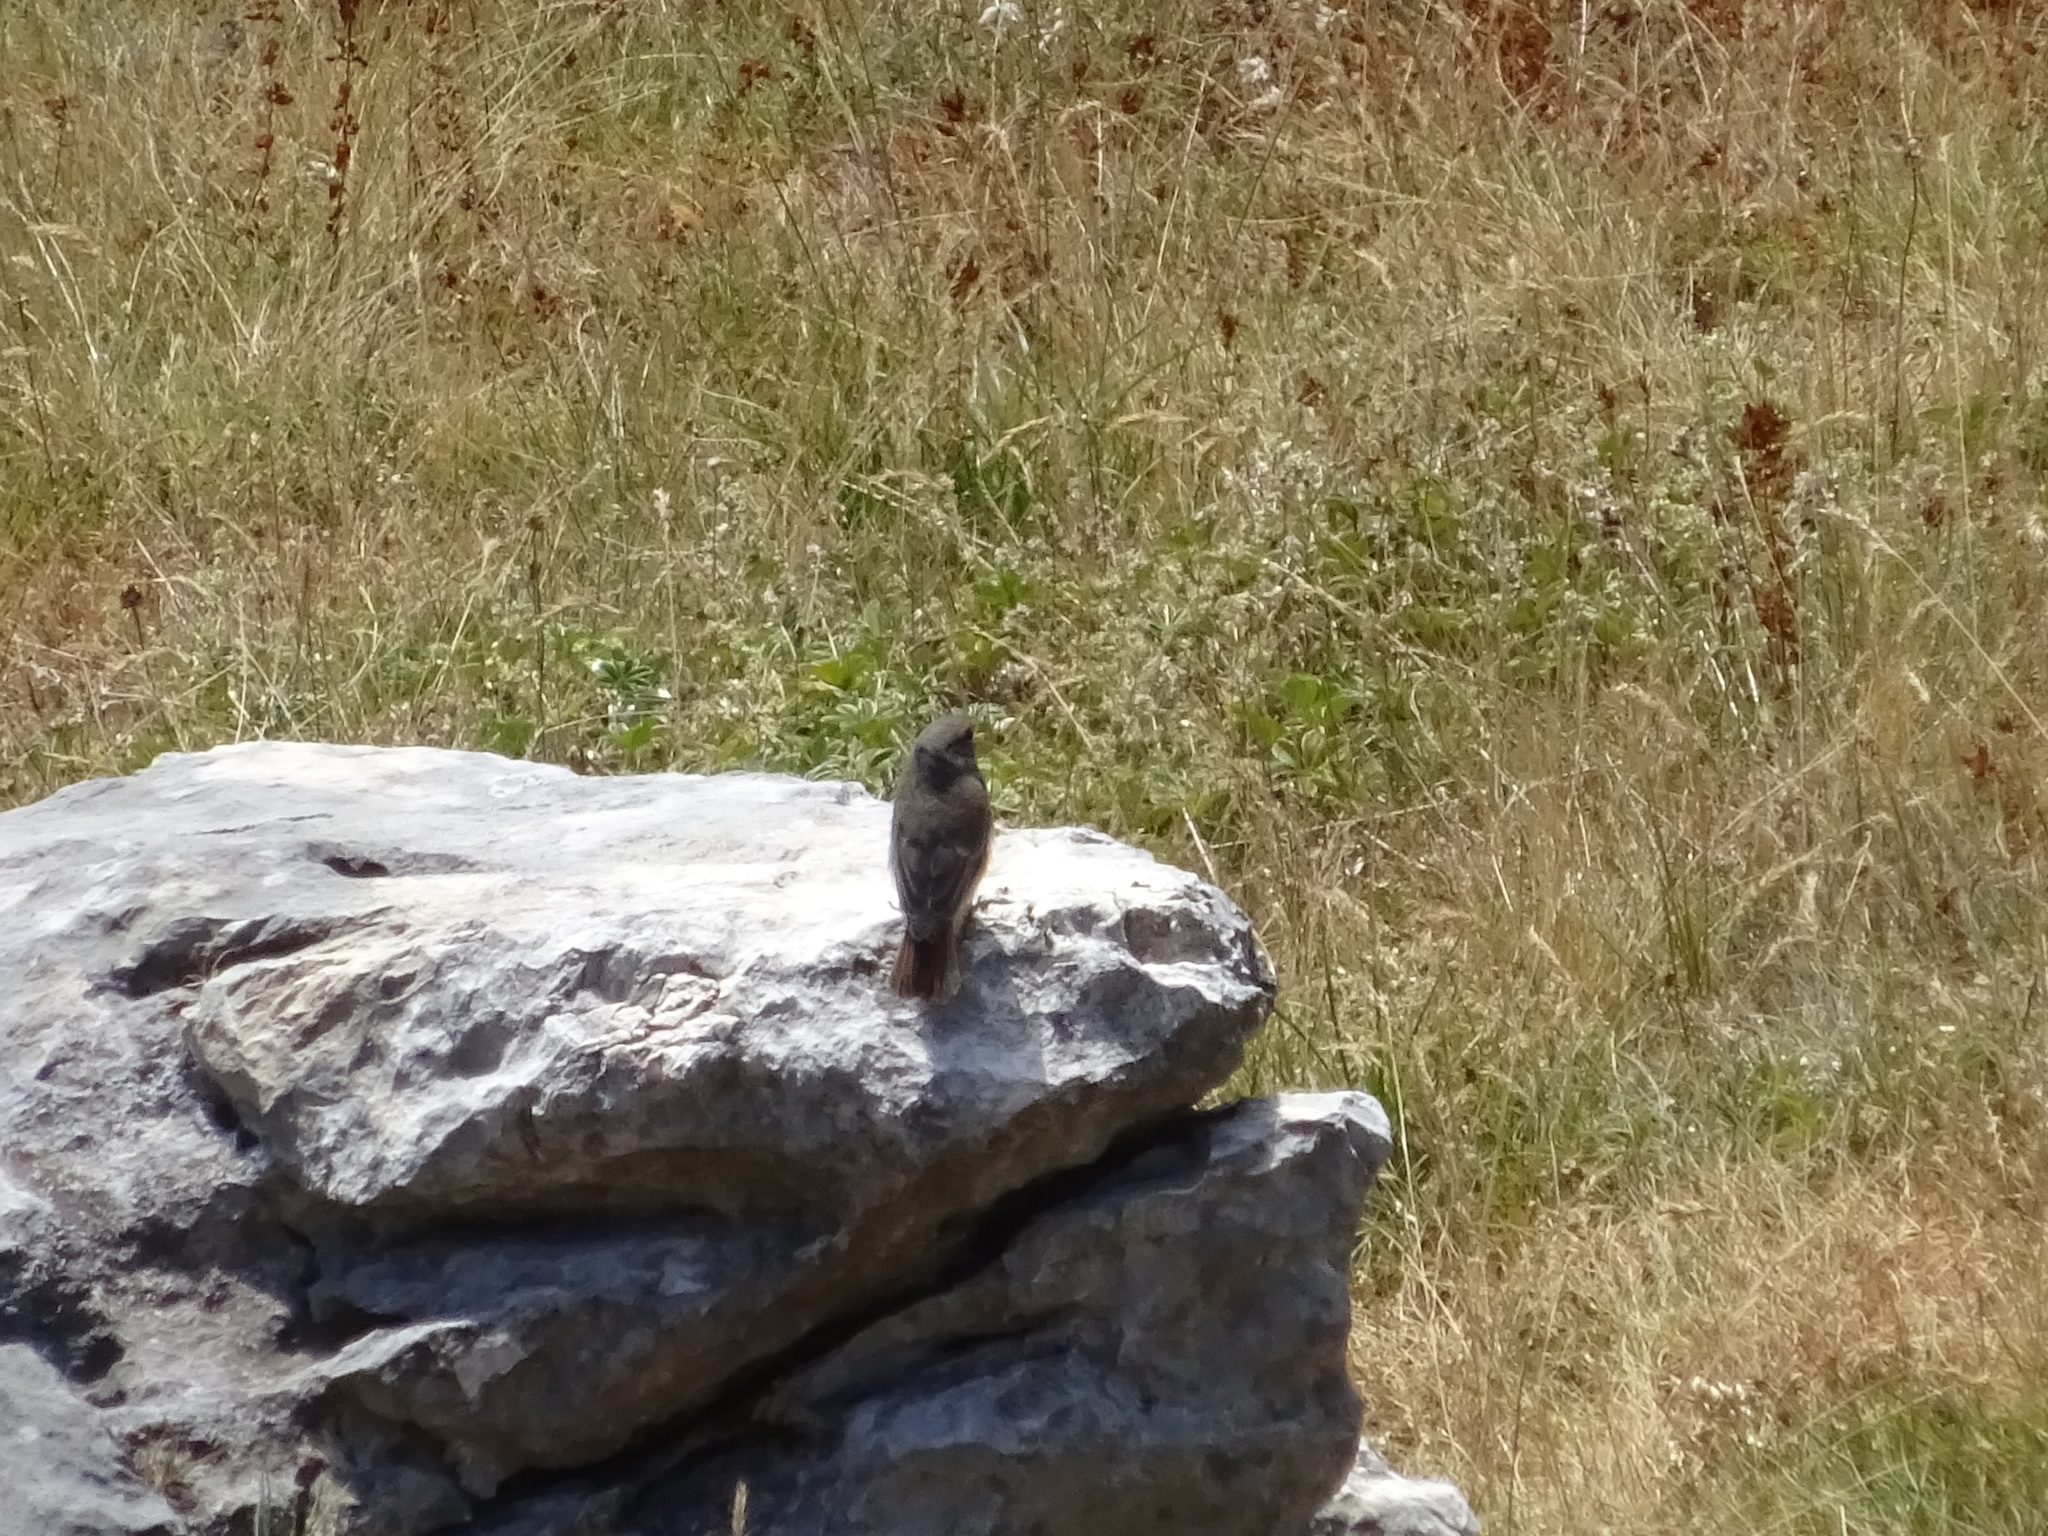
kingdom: Animalia
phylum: Chordata
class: Aves
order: Passeriformes
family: Muscicapidae
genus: Phoenicurus
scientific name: Phoenicurus ochruros
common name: Black redstart
